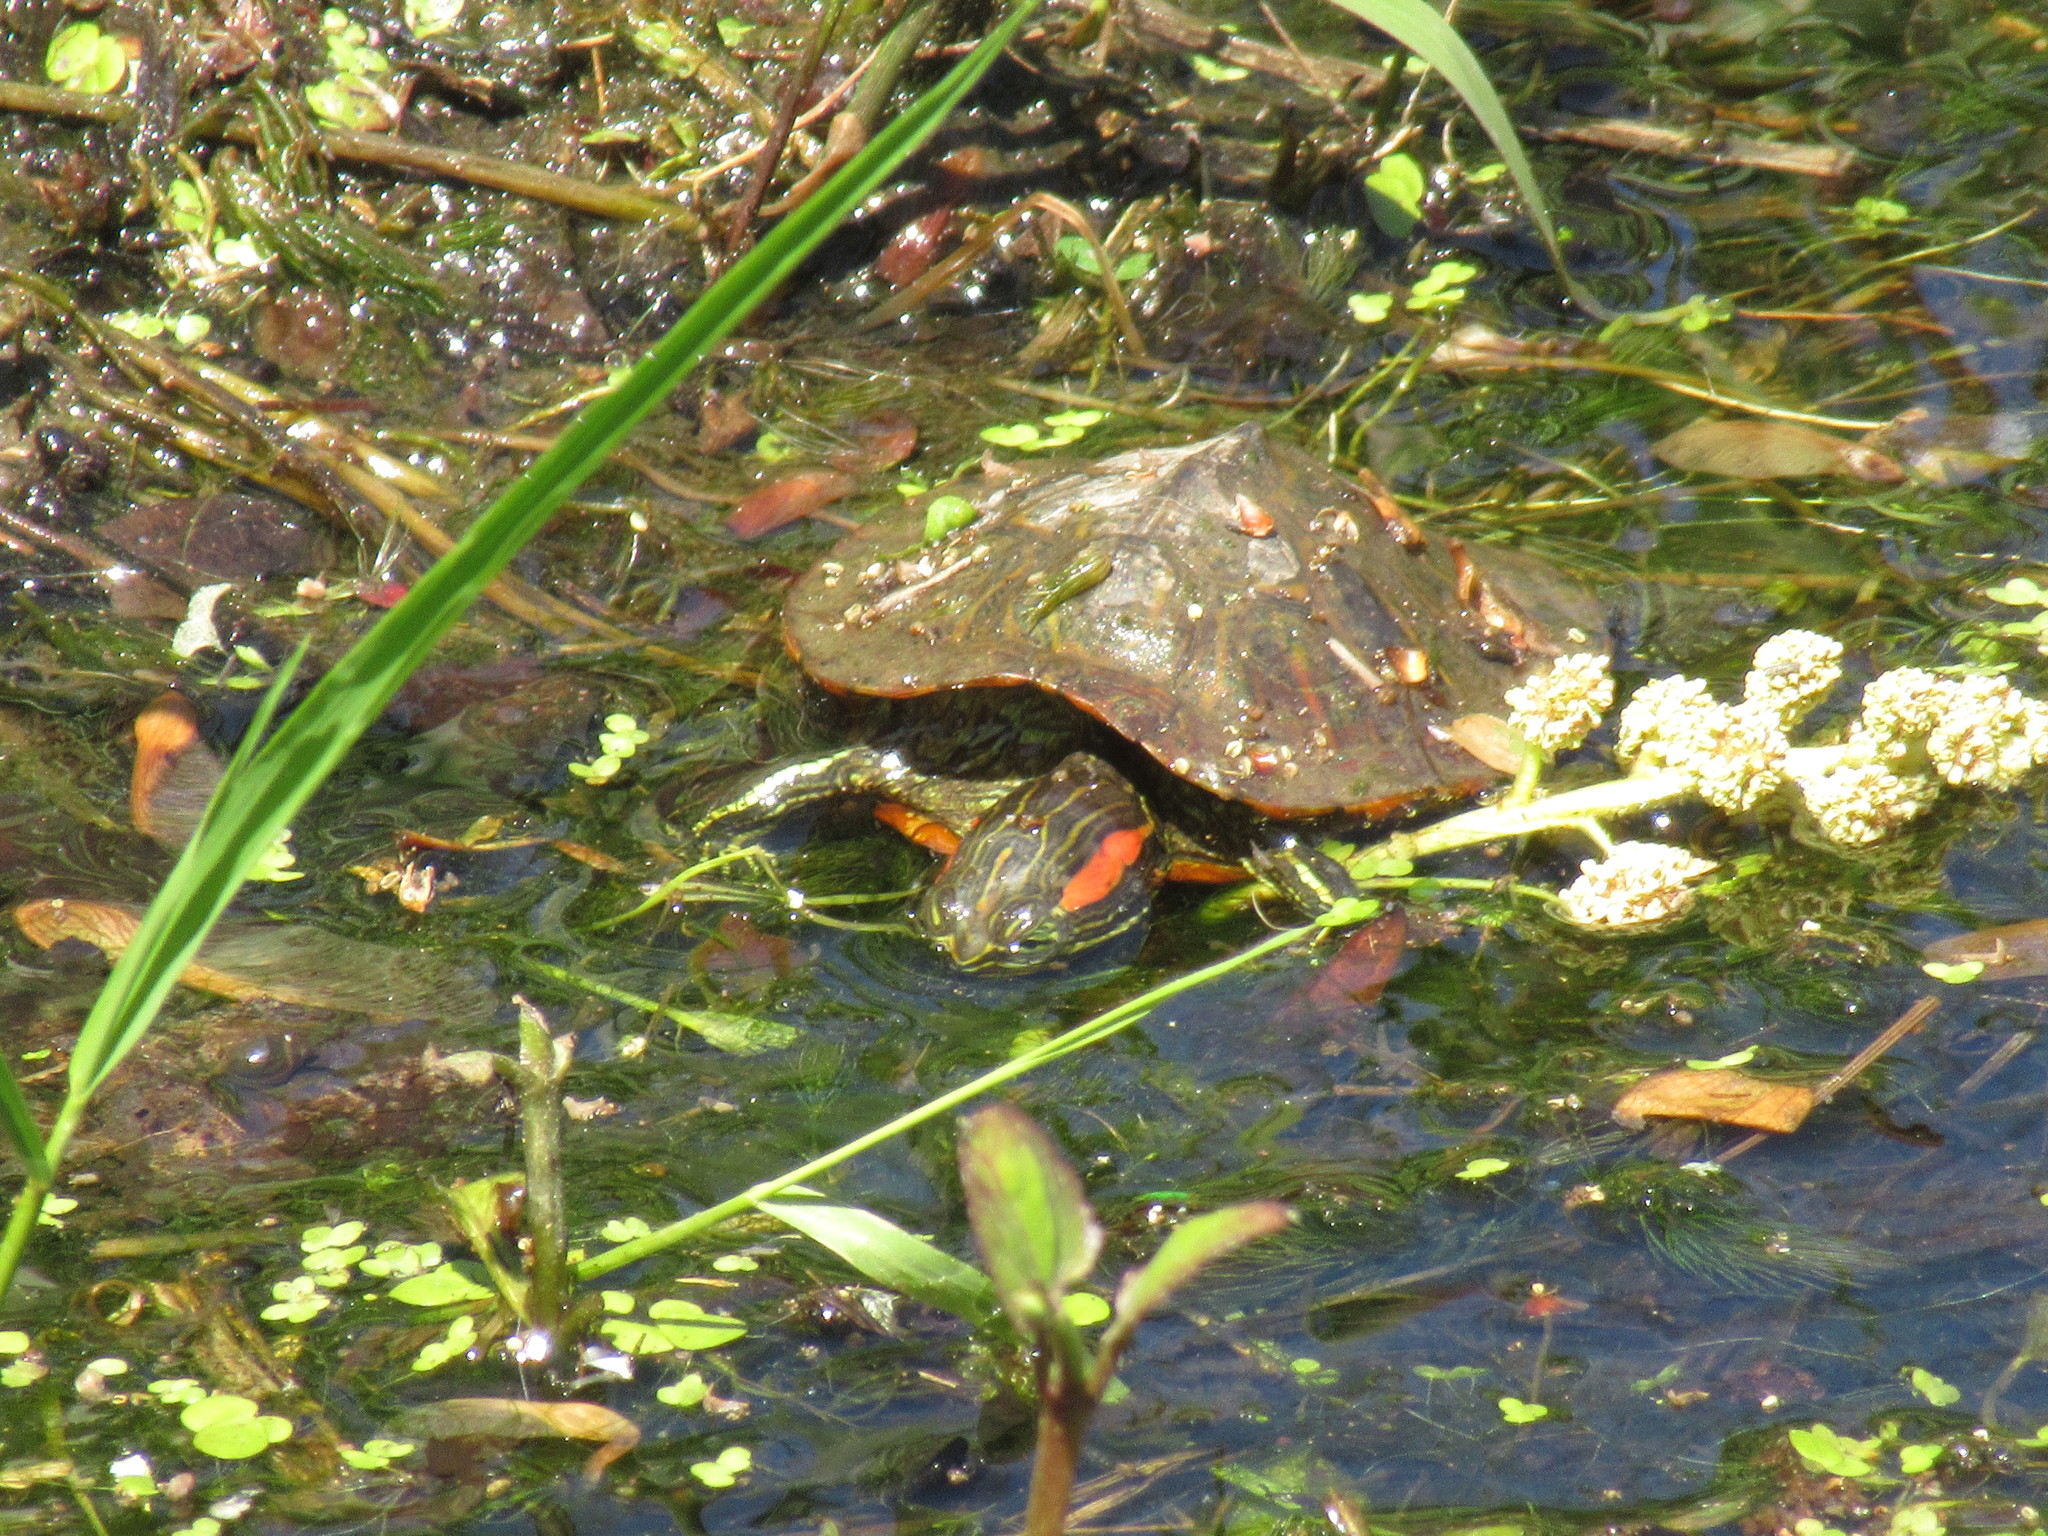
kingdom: Animalia
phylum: Chordata
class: Testudines
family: Emydidae
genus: Trachemys
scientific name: Trachemys scripta
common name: Slider
